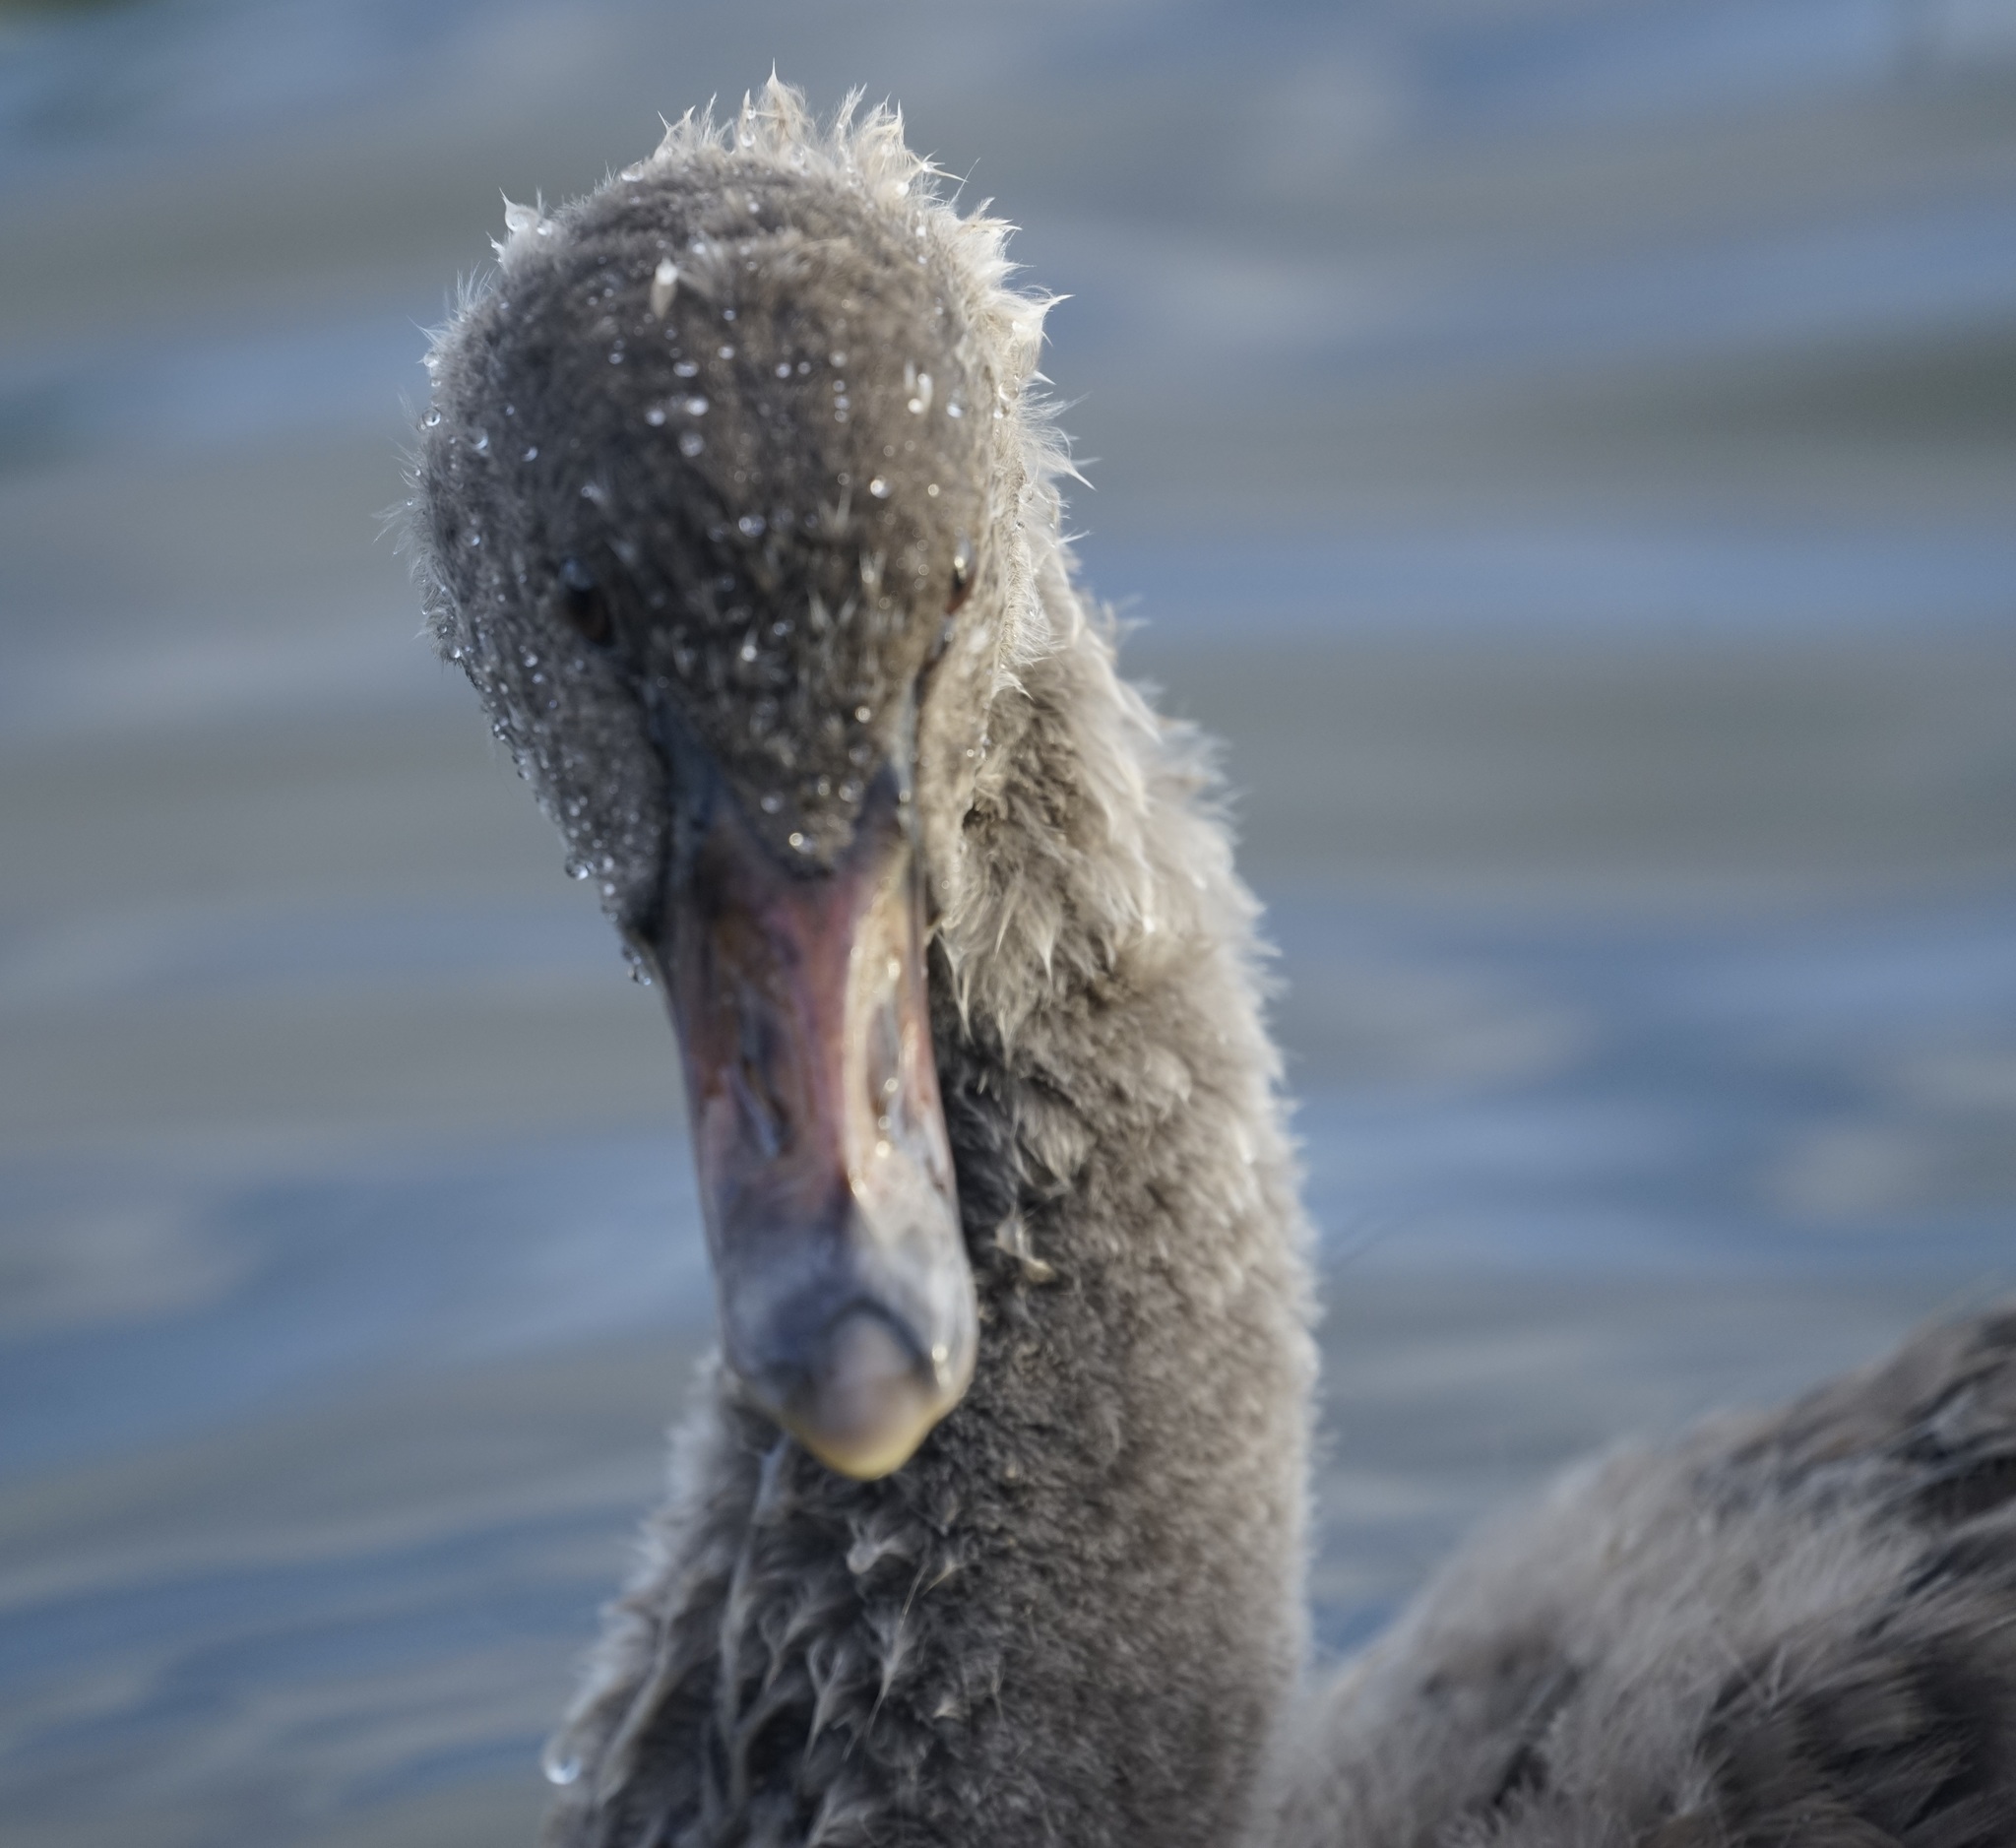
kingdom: Animalia
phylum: Chordata
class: Aves
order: Anseriformes
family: Anatidae
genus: Cygnus
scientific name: Cygnus atratus
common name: Black swan
